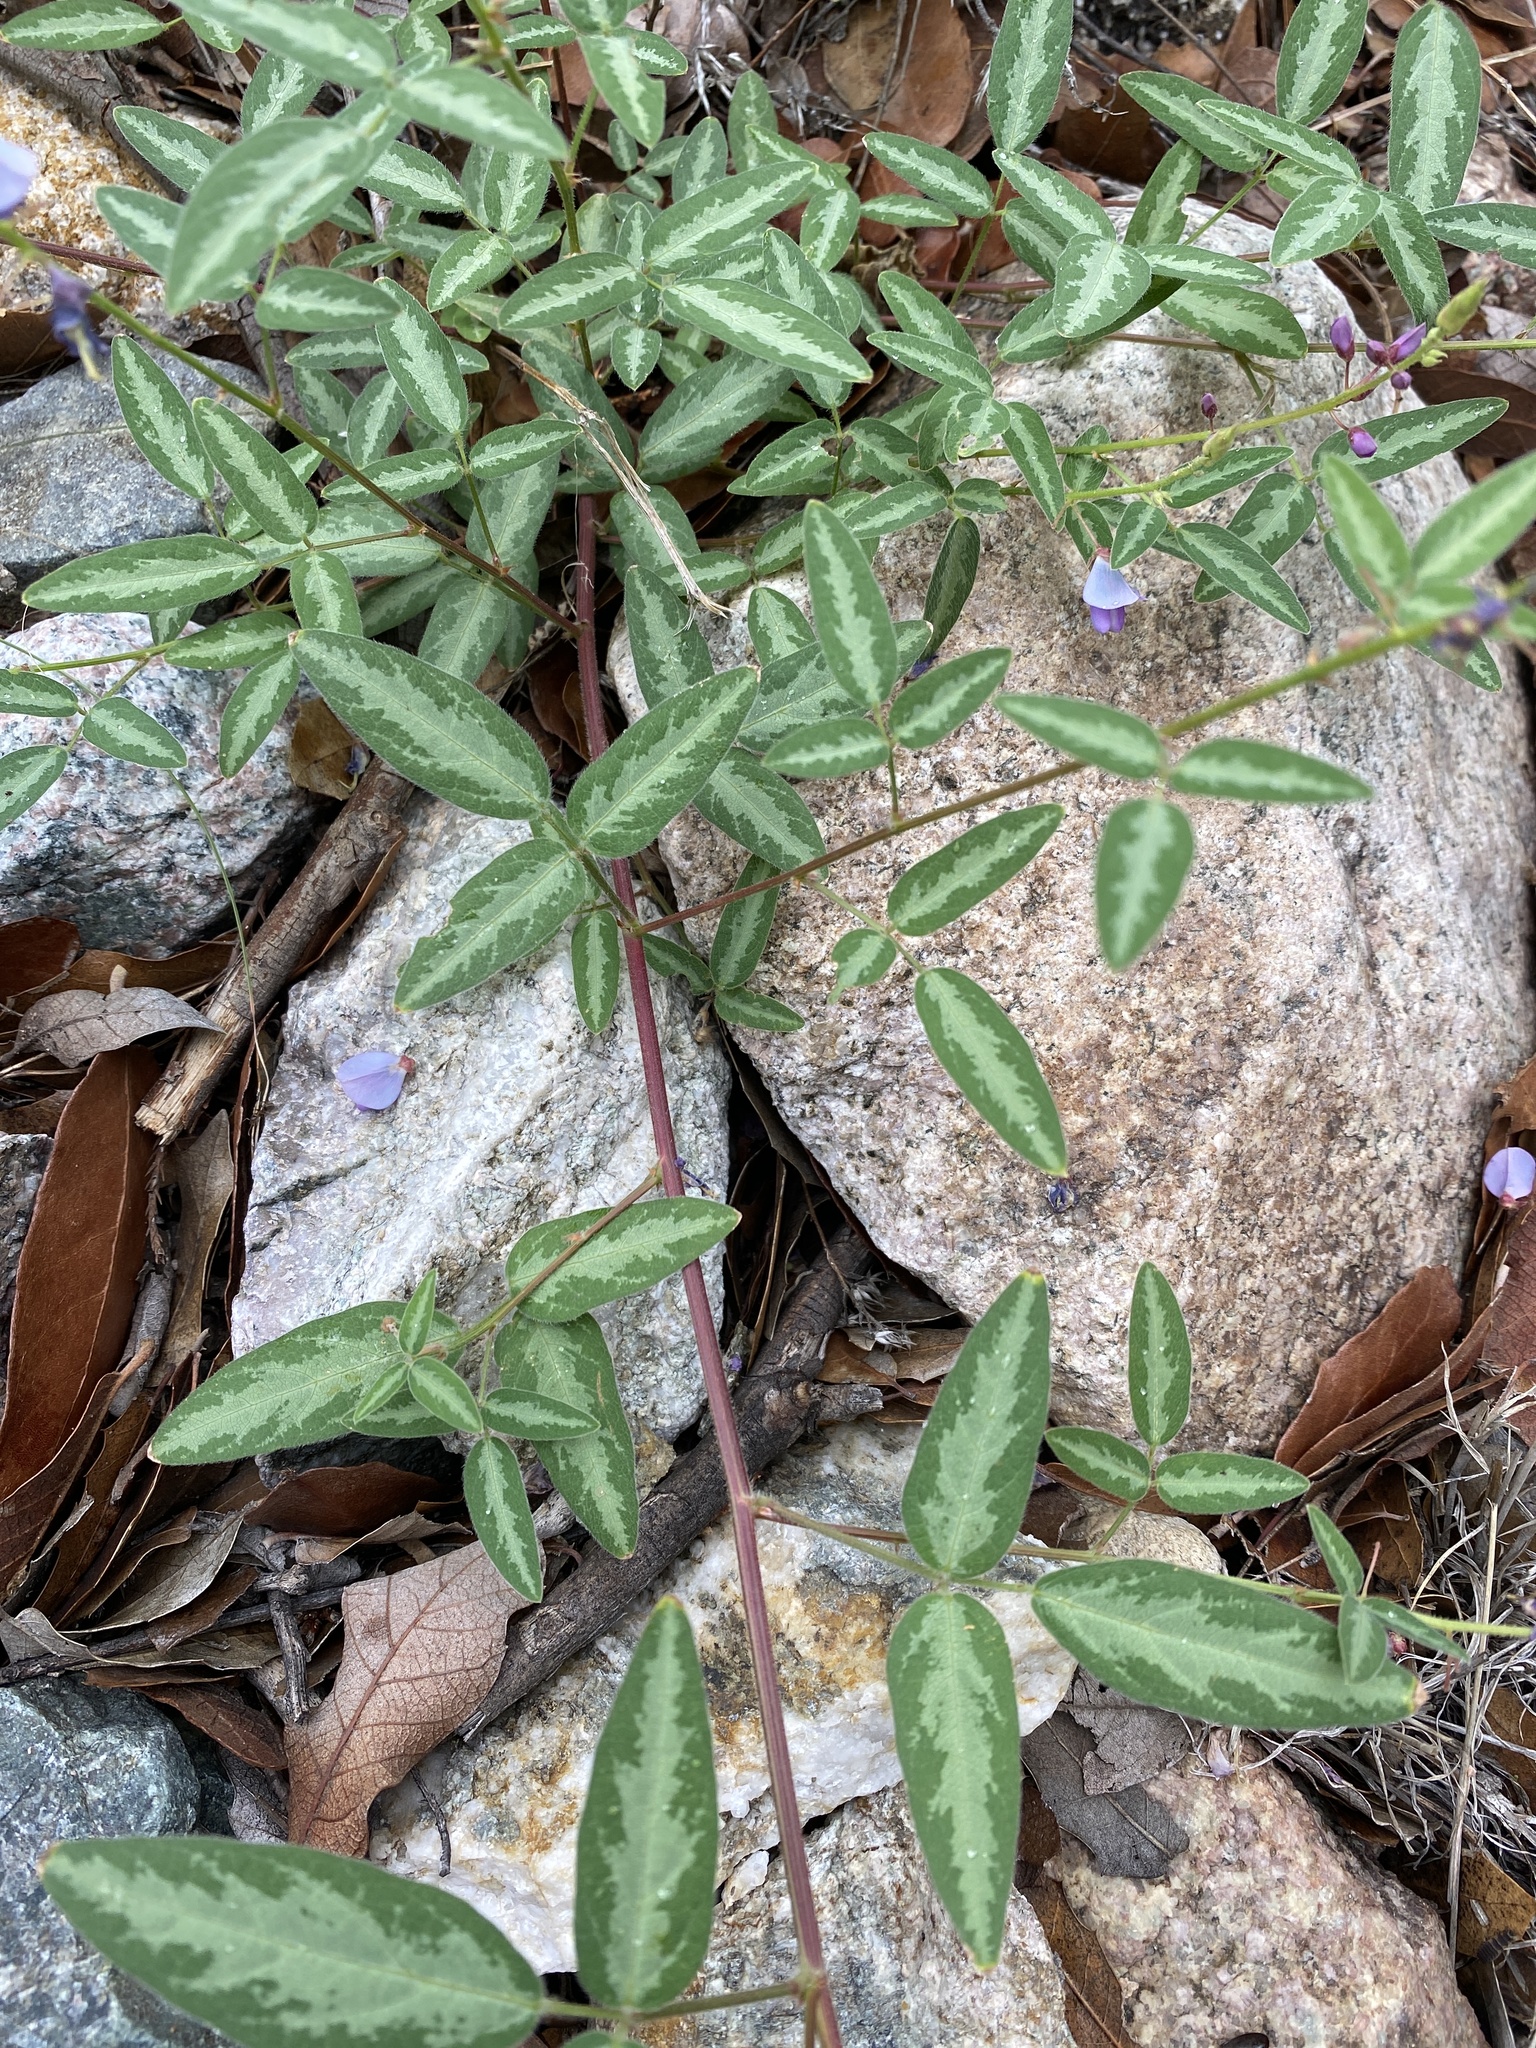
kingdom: Plantae
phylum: Tracheophyta
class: Magnoliopsida
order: Fabales
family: Fabaceae
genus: Desmodium
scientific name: Desmodium batocaulon
